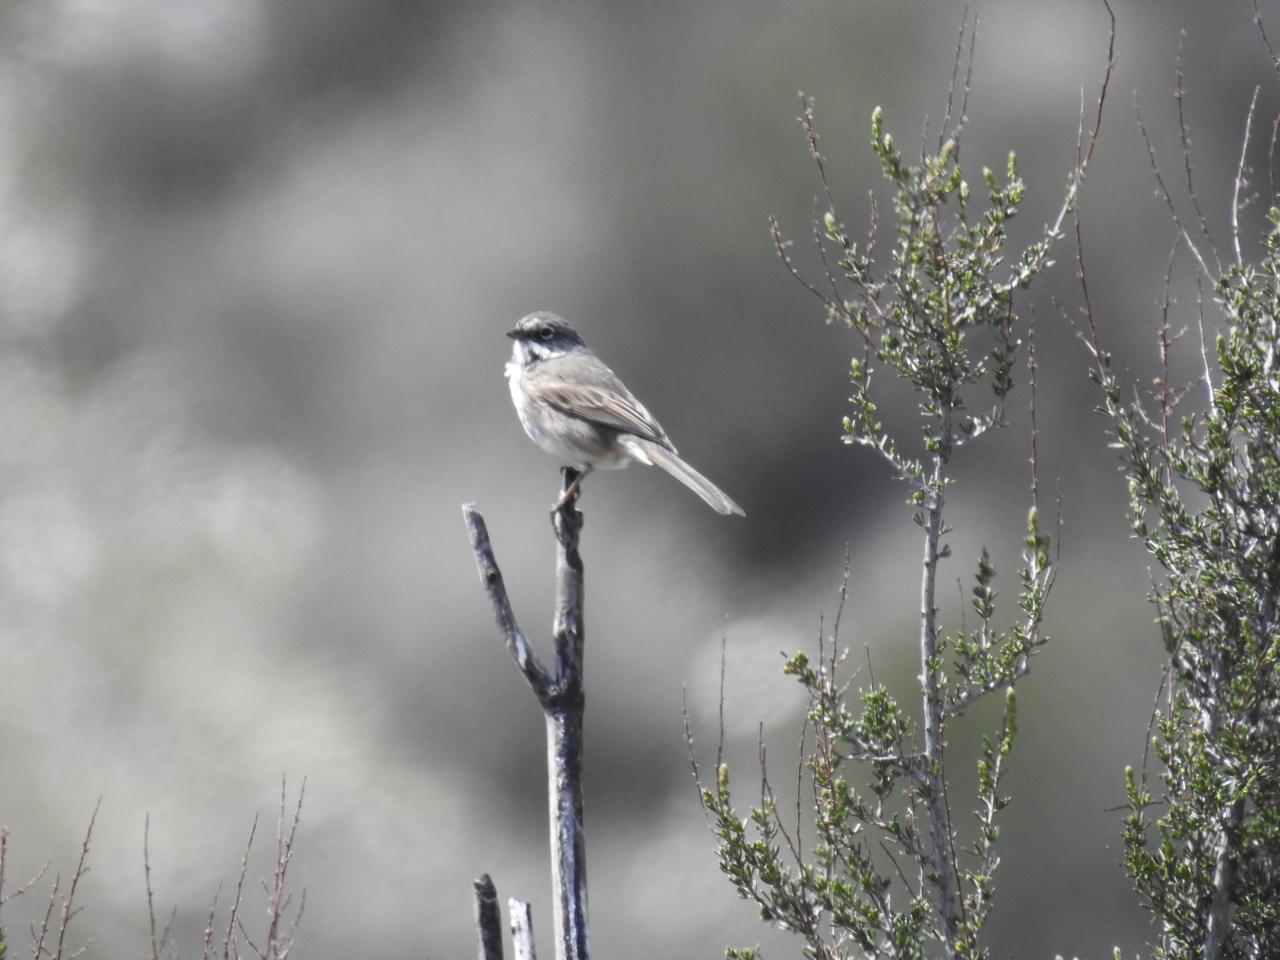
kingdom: Animalia
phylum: Chordata
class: Aves
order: Passeriformes
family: Passerellidae
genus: Artemisiospiza
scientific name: Artemisiospiza belli
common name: Bell's sparrow
